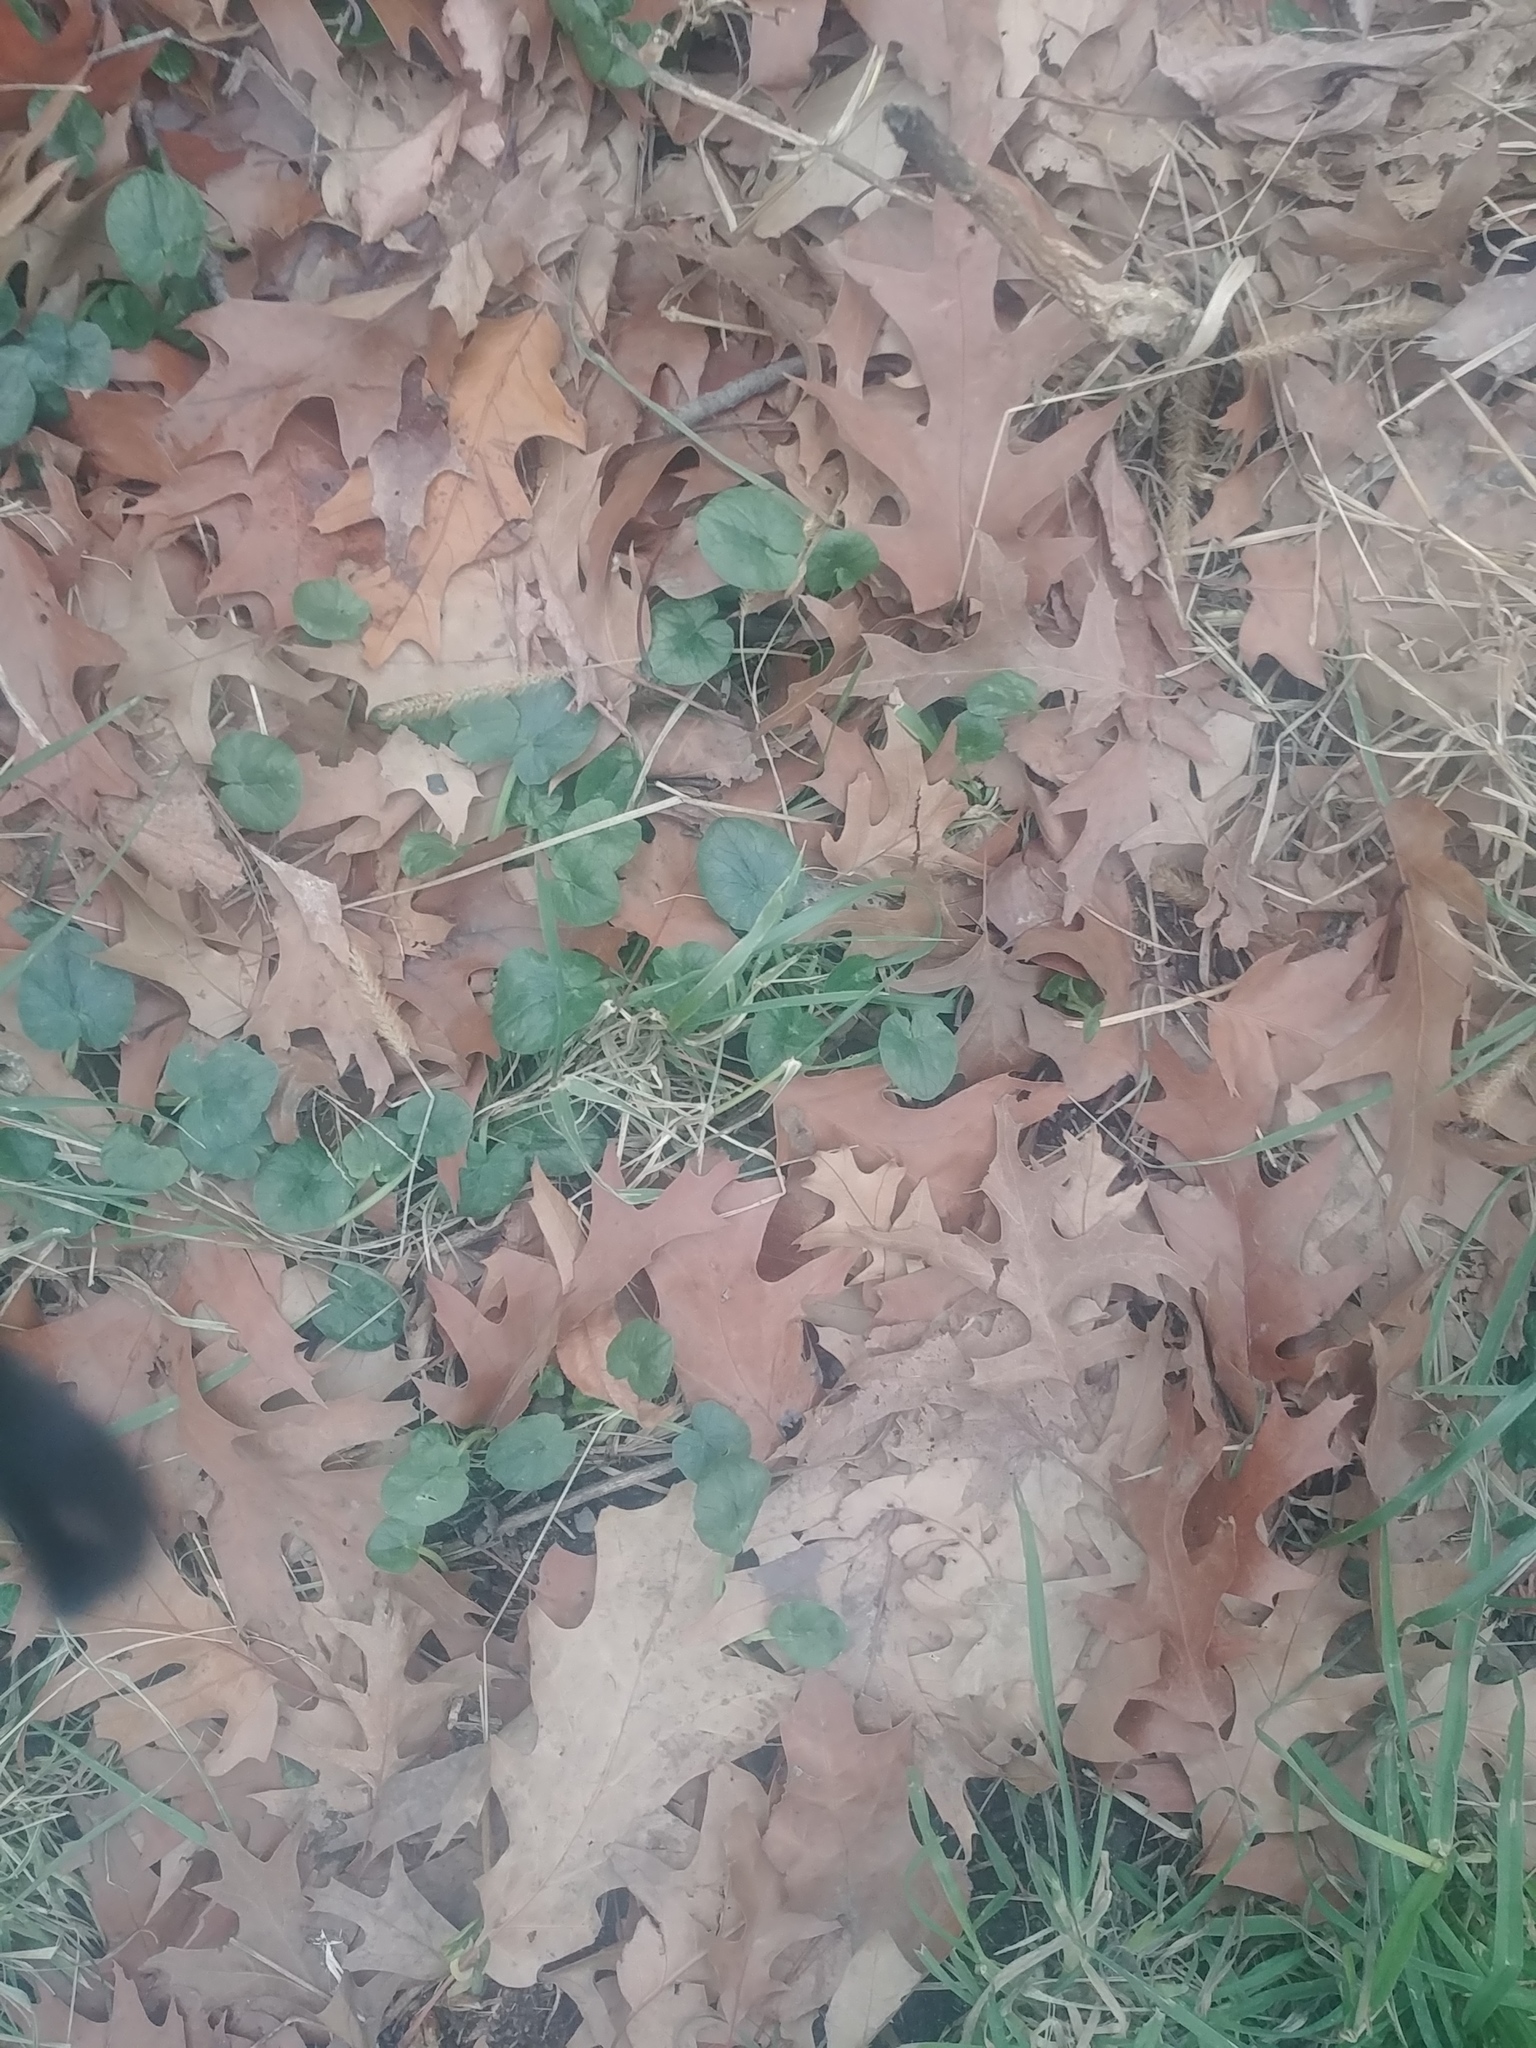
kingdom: Plantae
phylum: Tracheophyta
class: Magnoliopsida
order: Ranunculales
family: Ranunculaceae
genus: Ficaria
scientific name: Ficaria verna
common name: Lesser celandine
